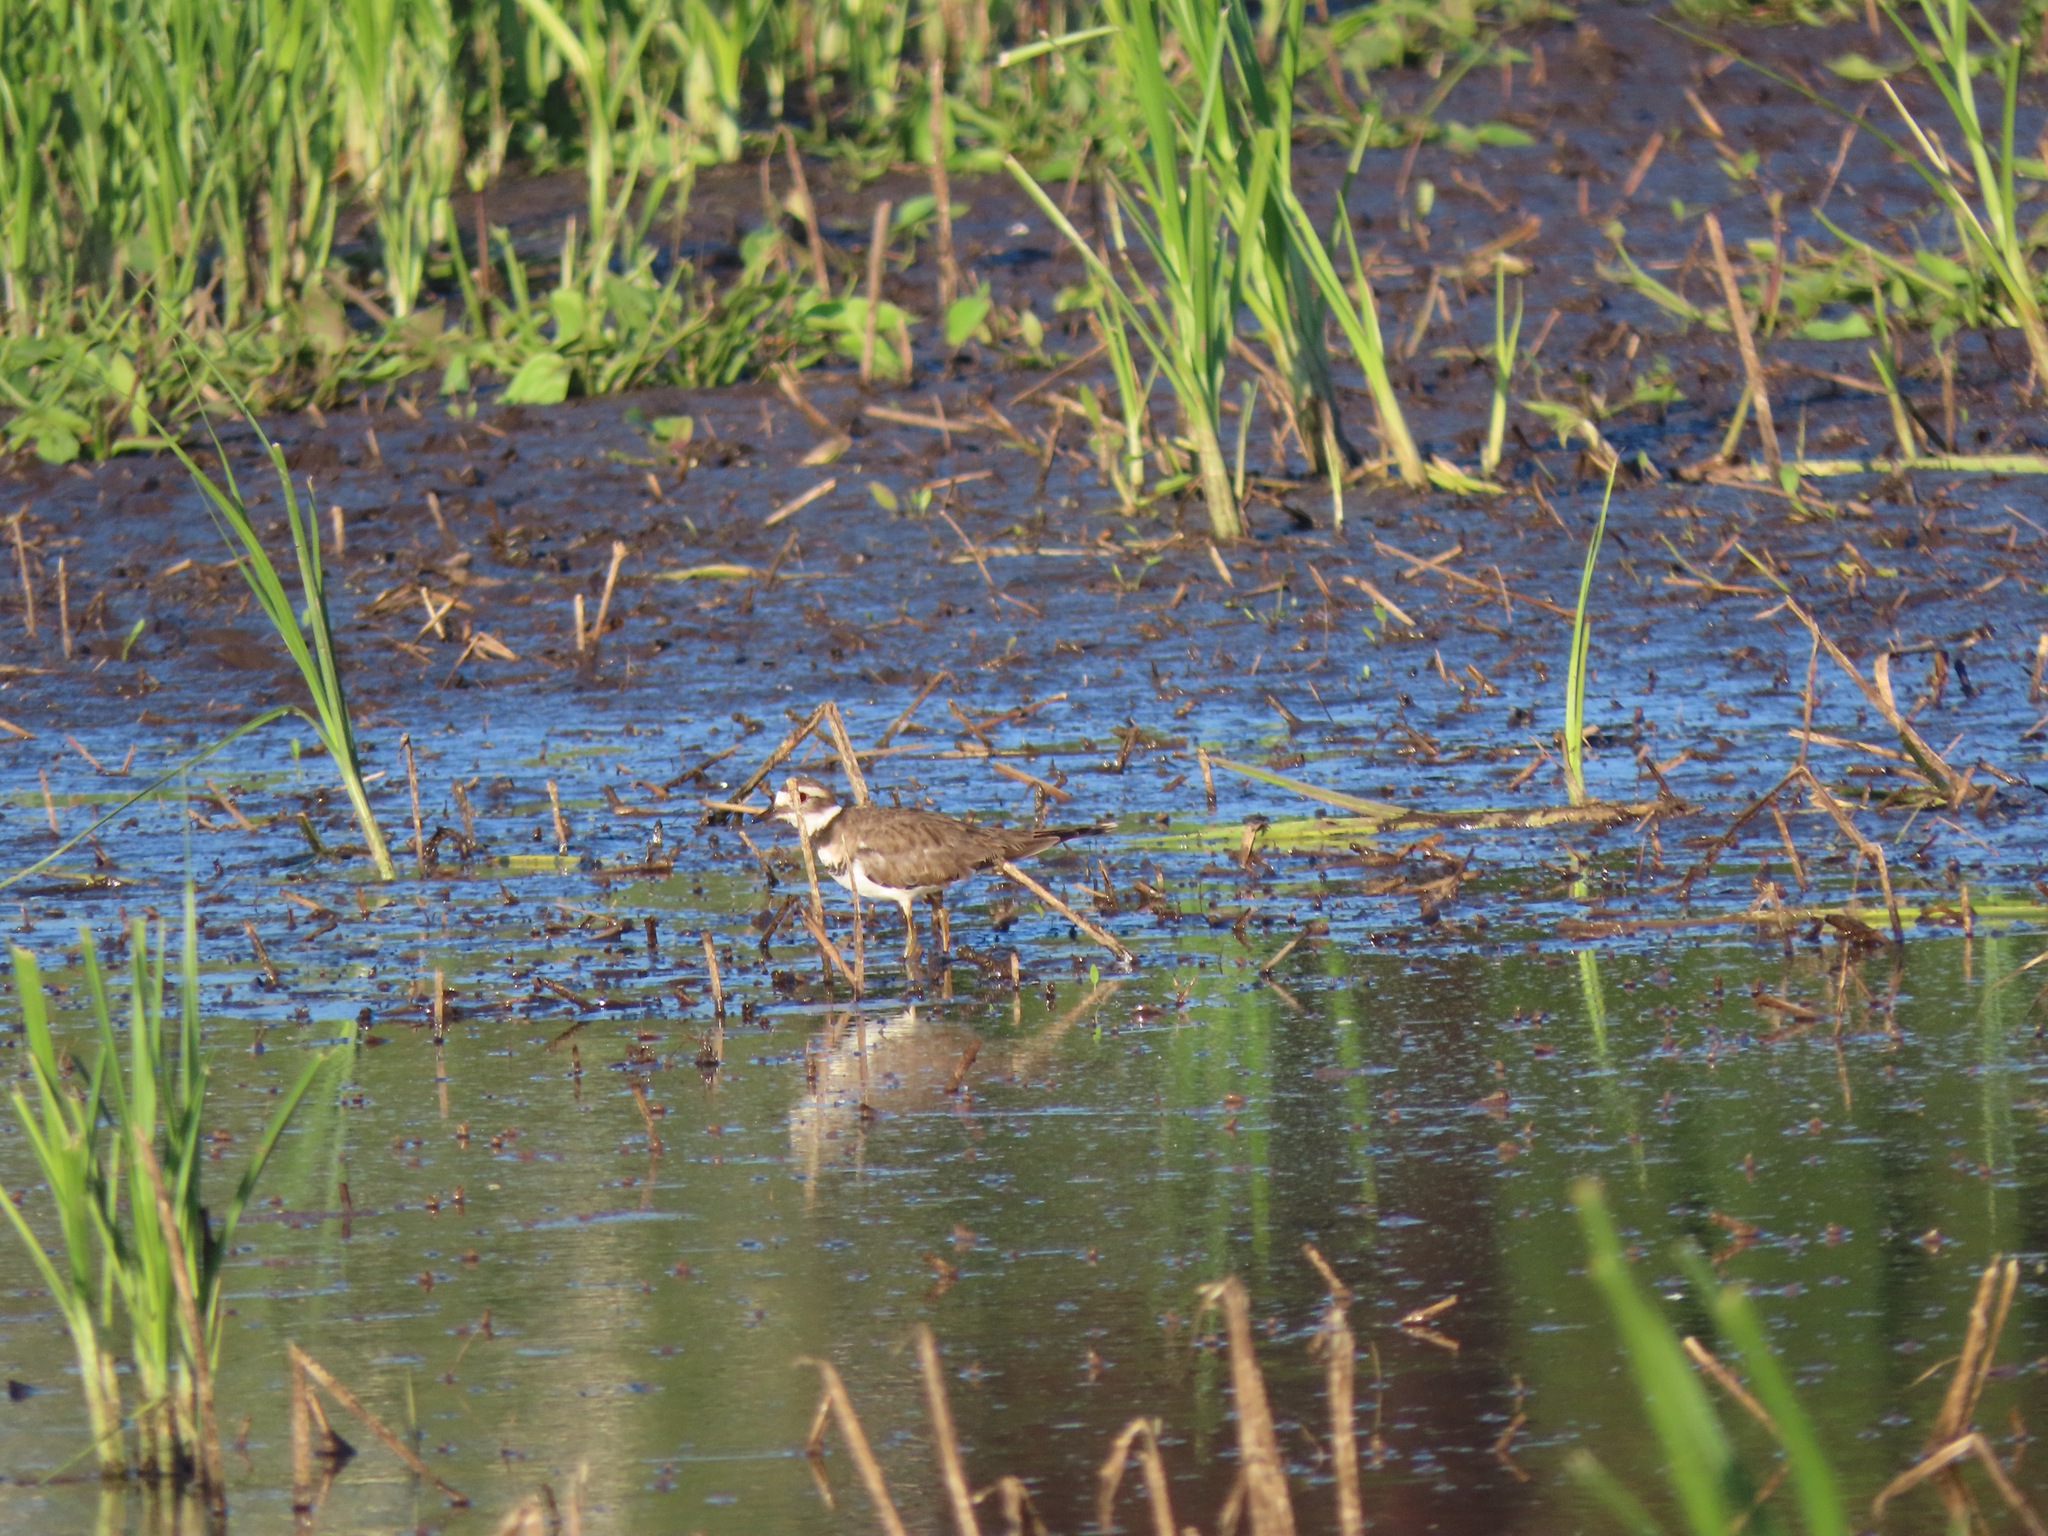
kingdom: Animalia
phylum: Chordata
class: Aves
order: Charadriiformes
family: Charadriidae
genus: Charadrius
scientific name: Charadrius vociferus
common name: Killdeer
